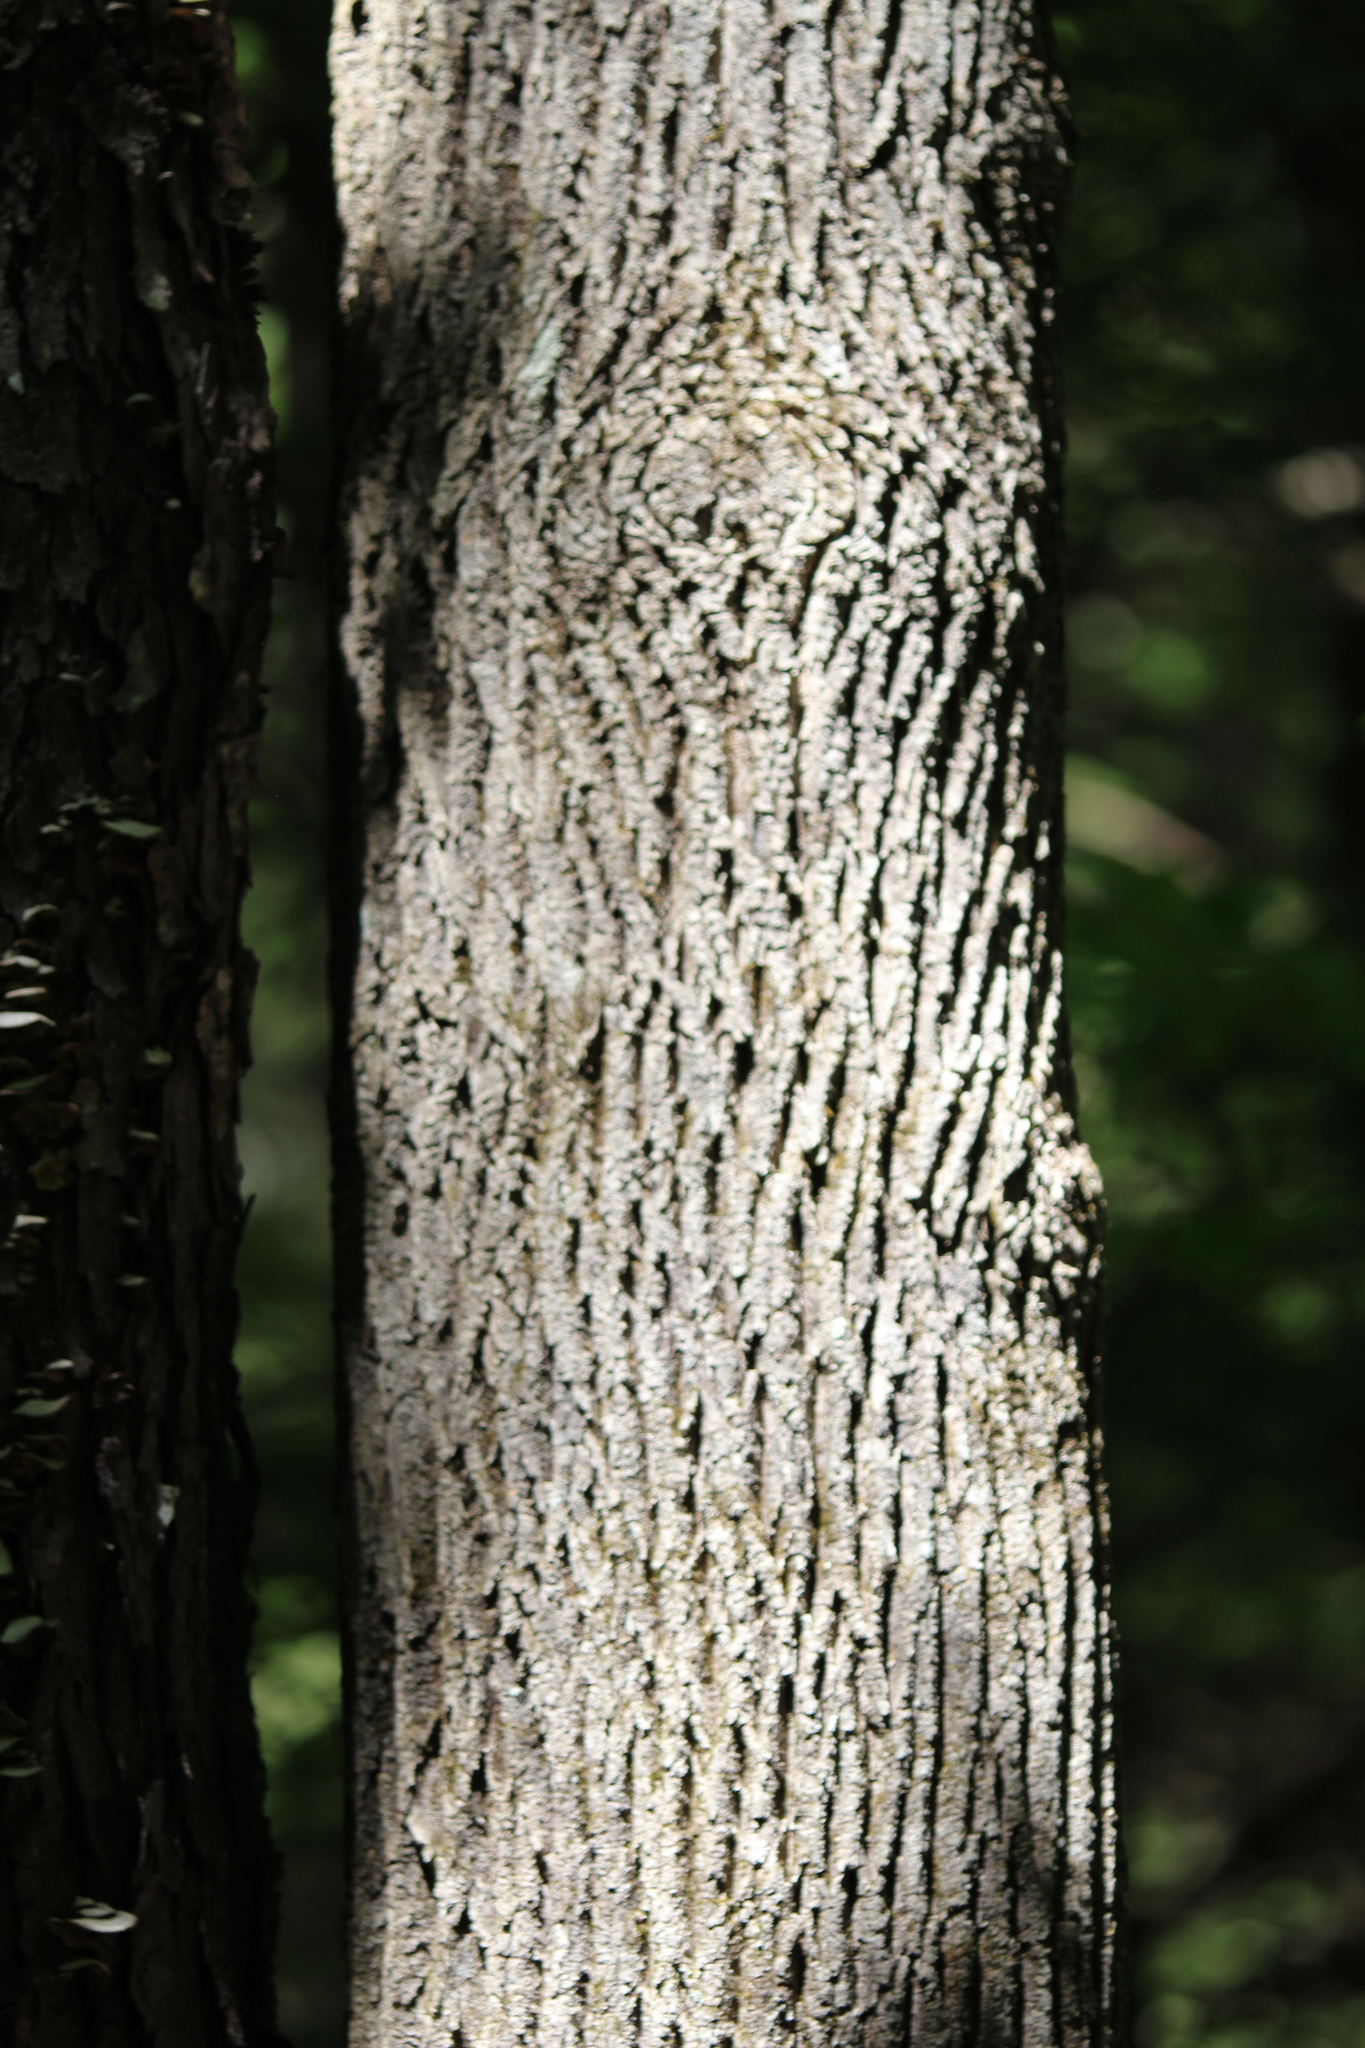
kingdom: Plantae
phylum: Tracheophyta
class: Magnoliopsida
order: Lamiales
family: Oleaceae
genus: Fraxinus
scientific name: Fraxinus americana
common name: White ash
